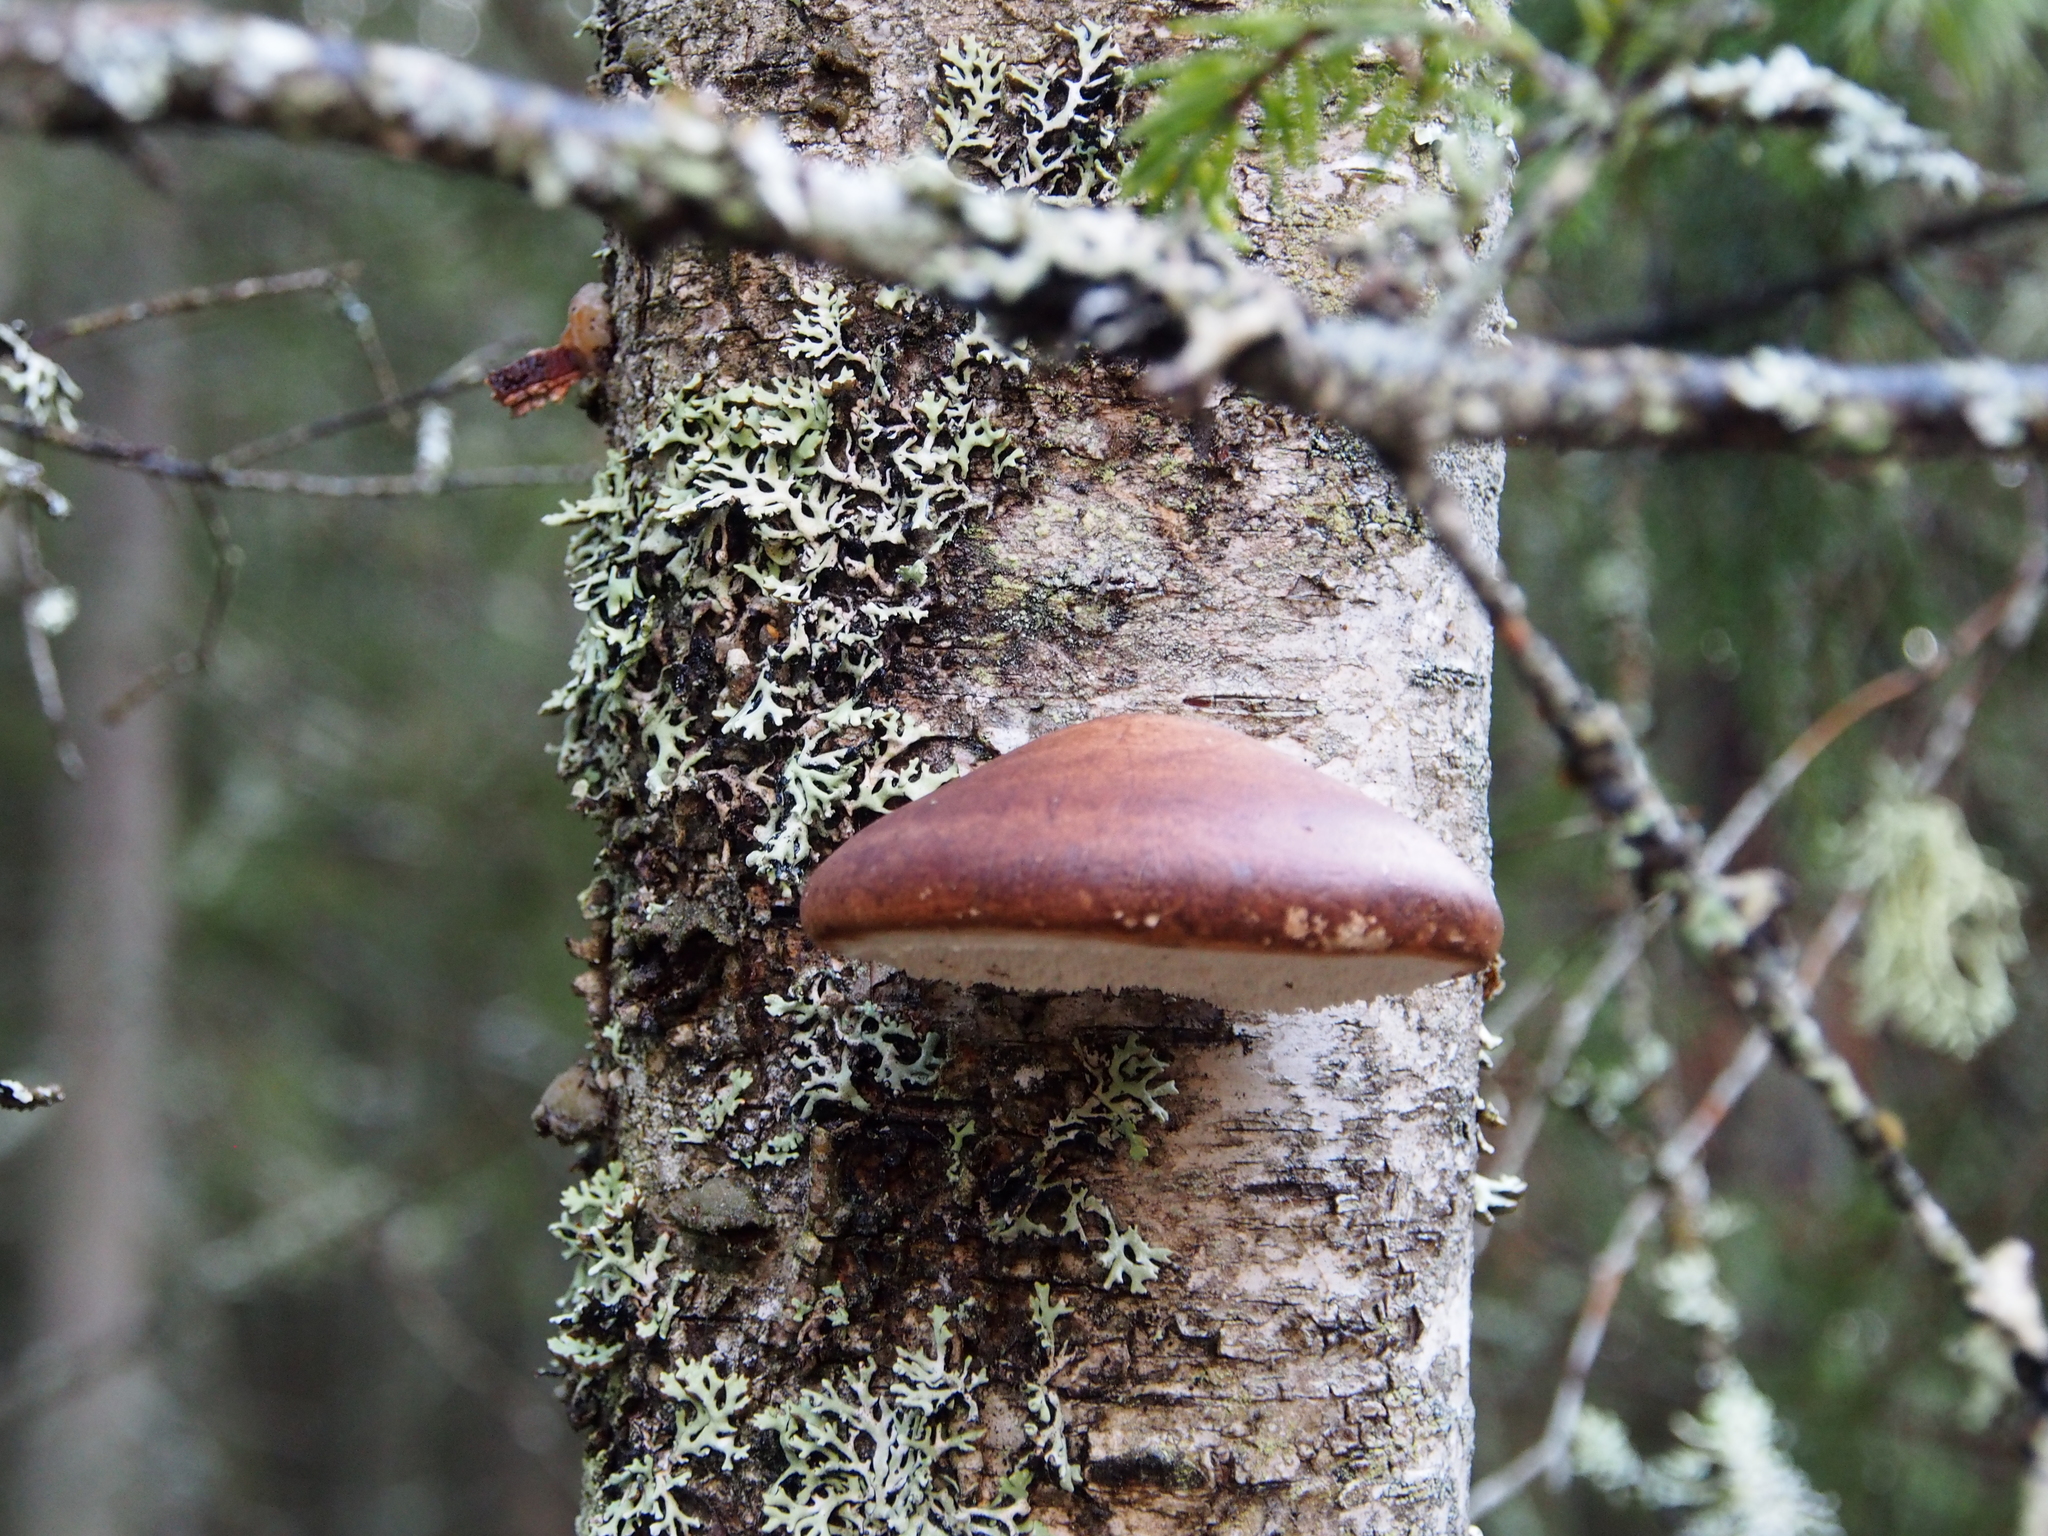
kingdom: Fungi
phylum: Basidiomycota
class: Agaricomycetes
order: Polyporales
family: Fomitopsidaceae
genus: Fomitopsis
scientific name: Fomitopsis betulina
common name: Birch polypore
